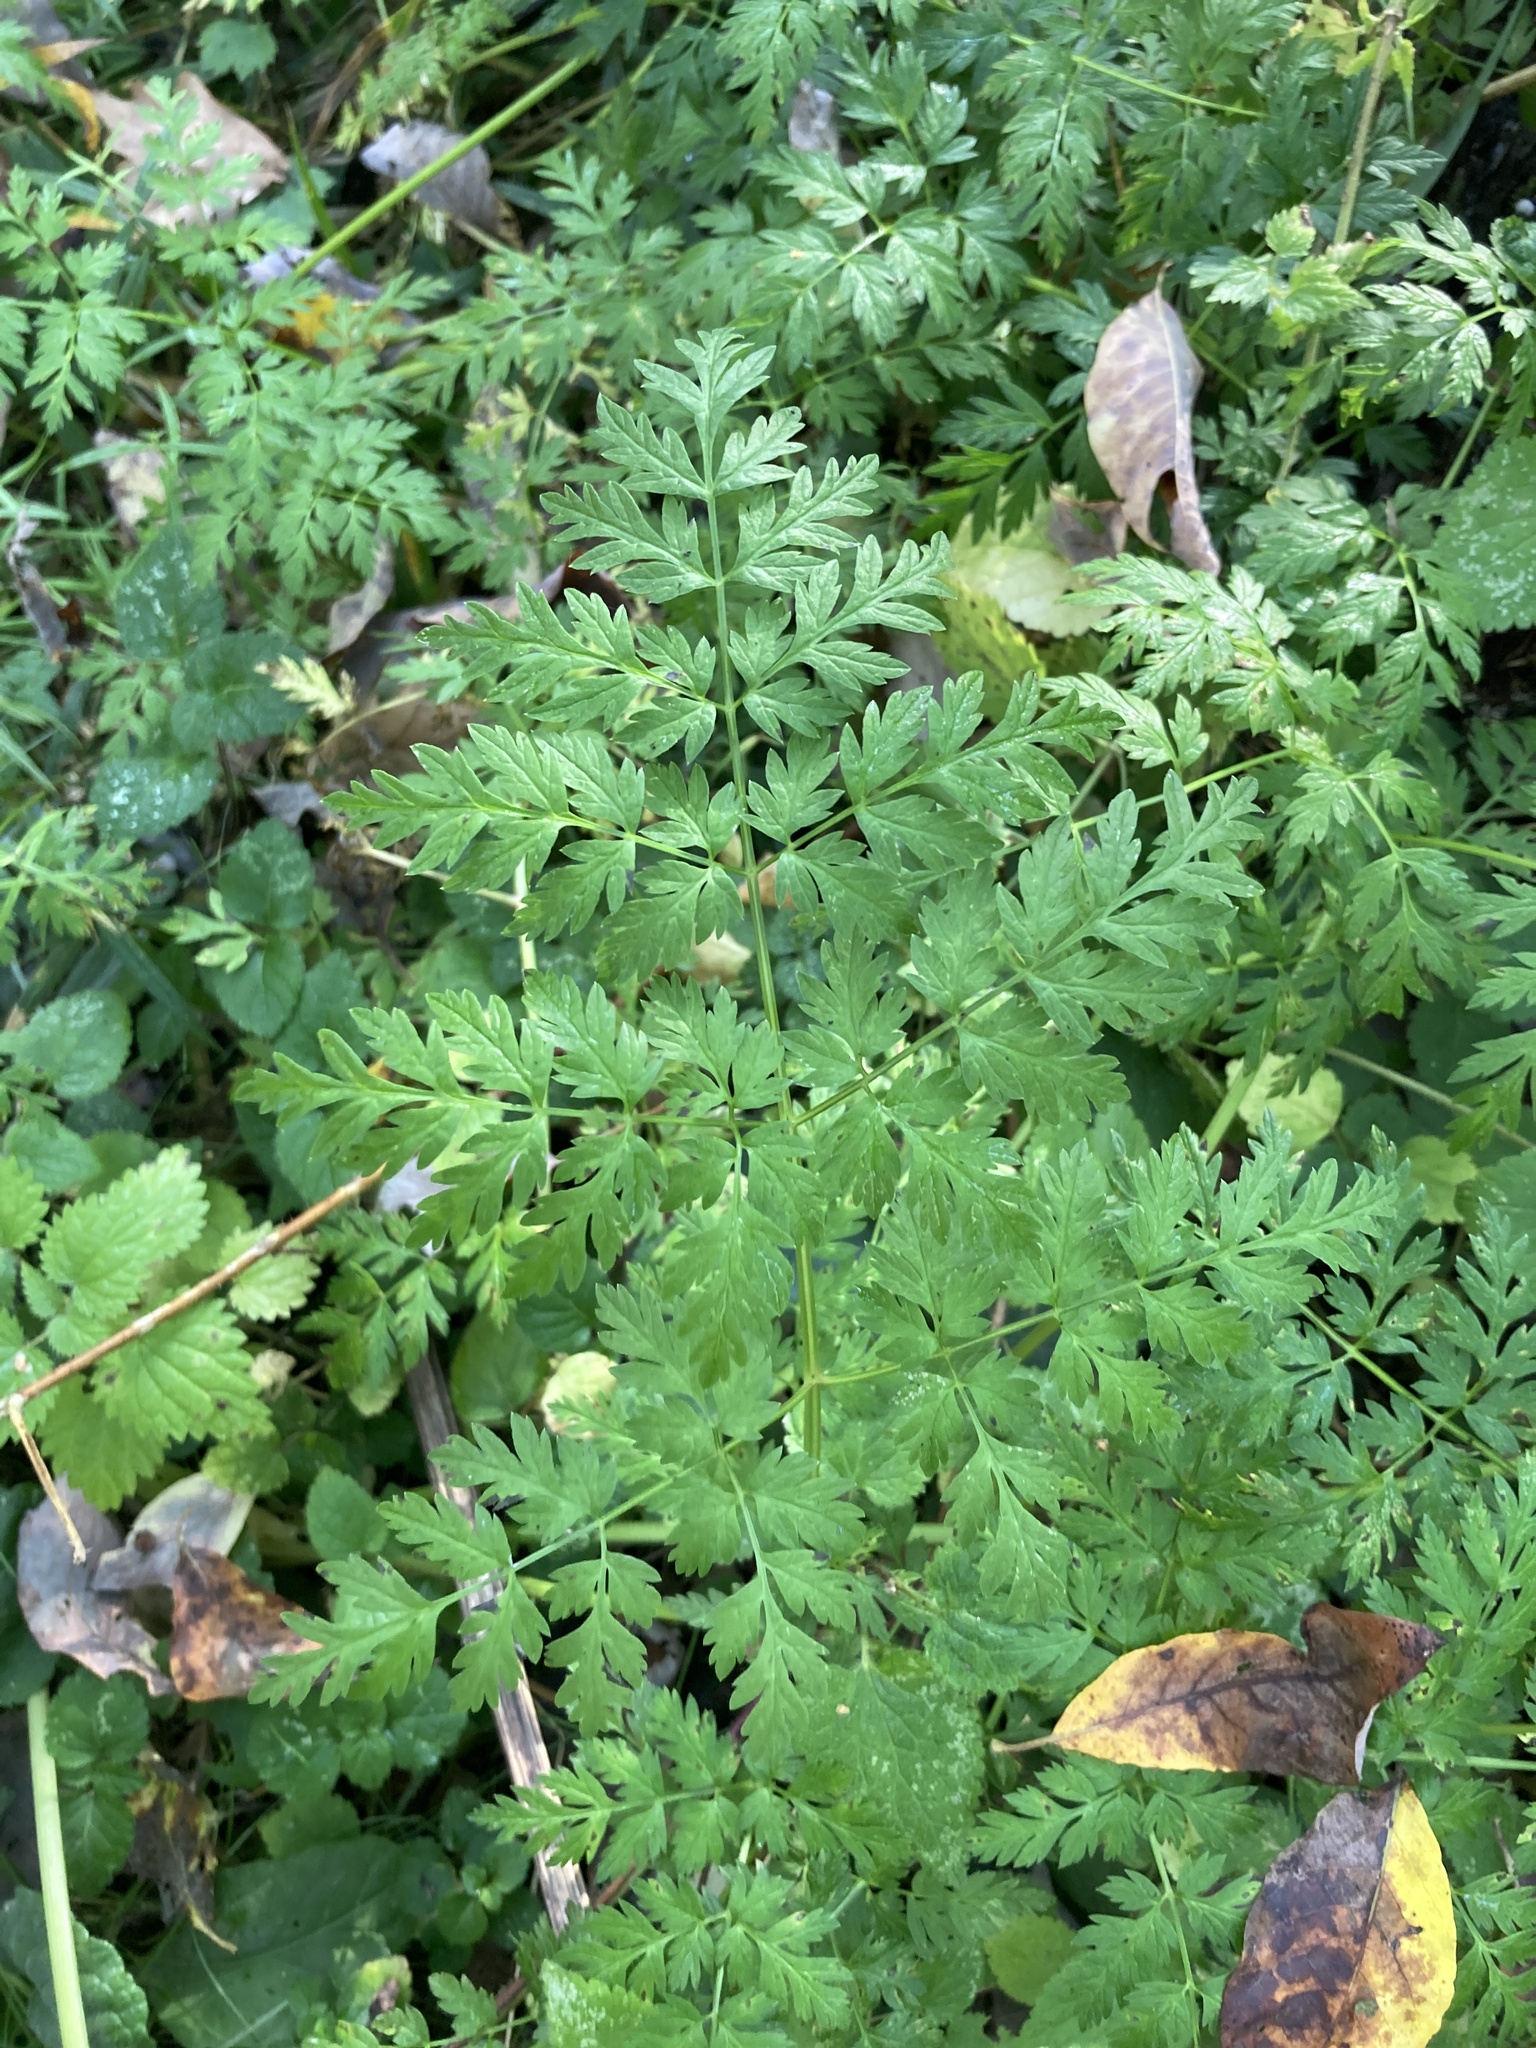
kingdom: Plantae
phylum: Tracheophyta
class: Magnoliopsida
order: Apiales
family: Apiaceae
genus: Anthriscus
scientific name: Anthriscus sylvestris
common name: Cow parsley
